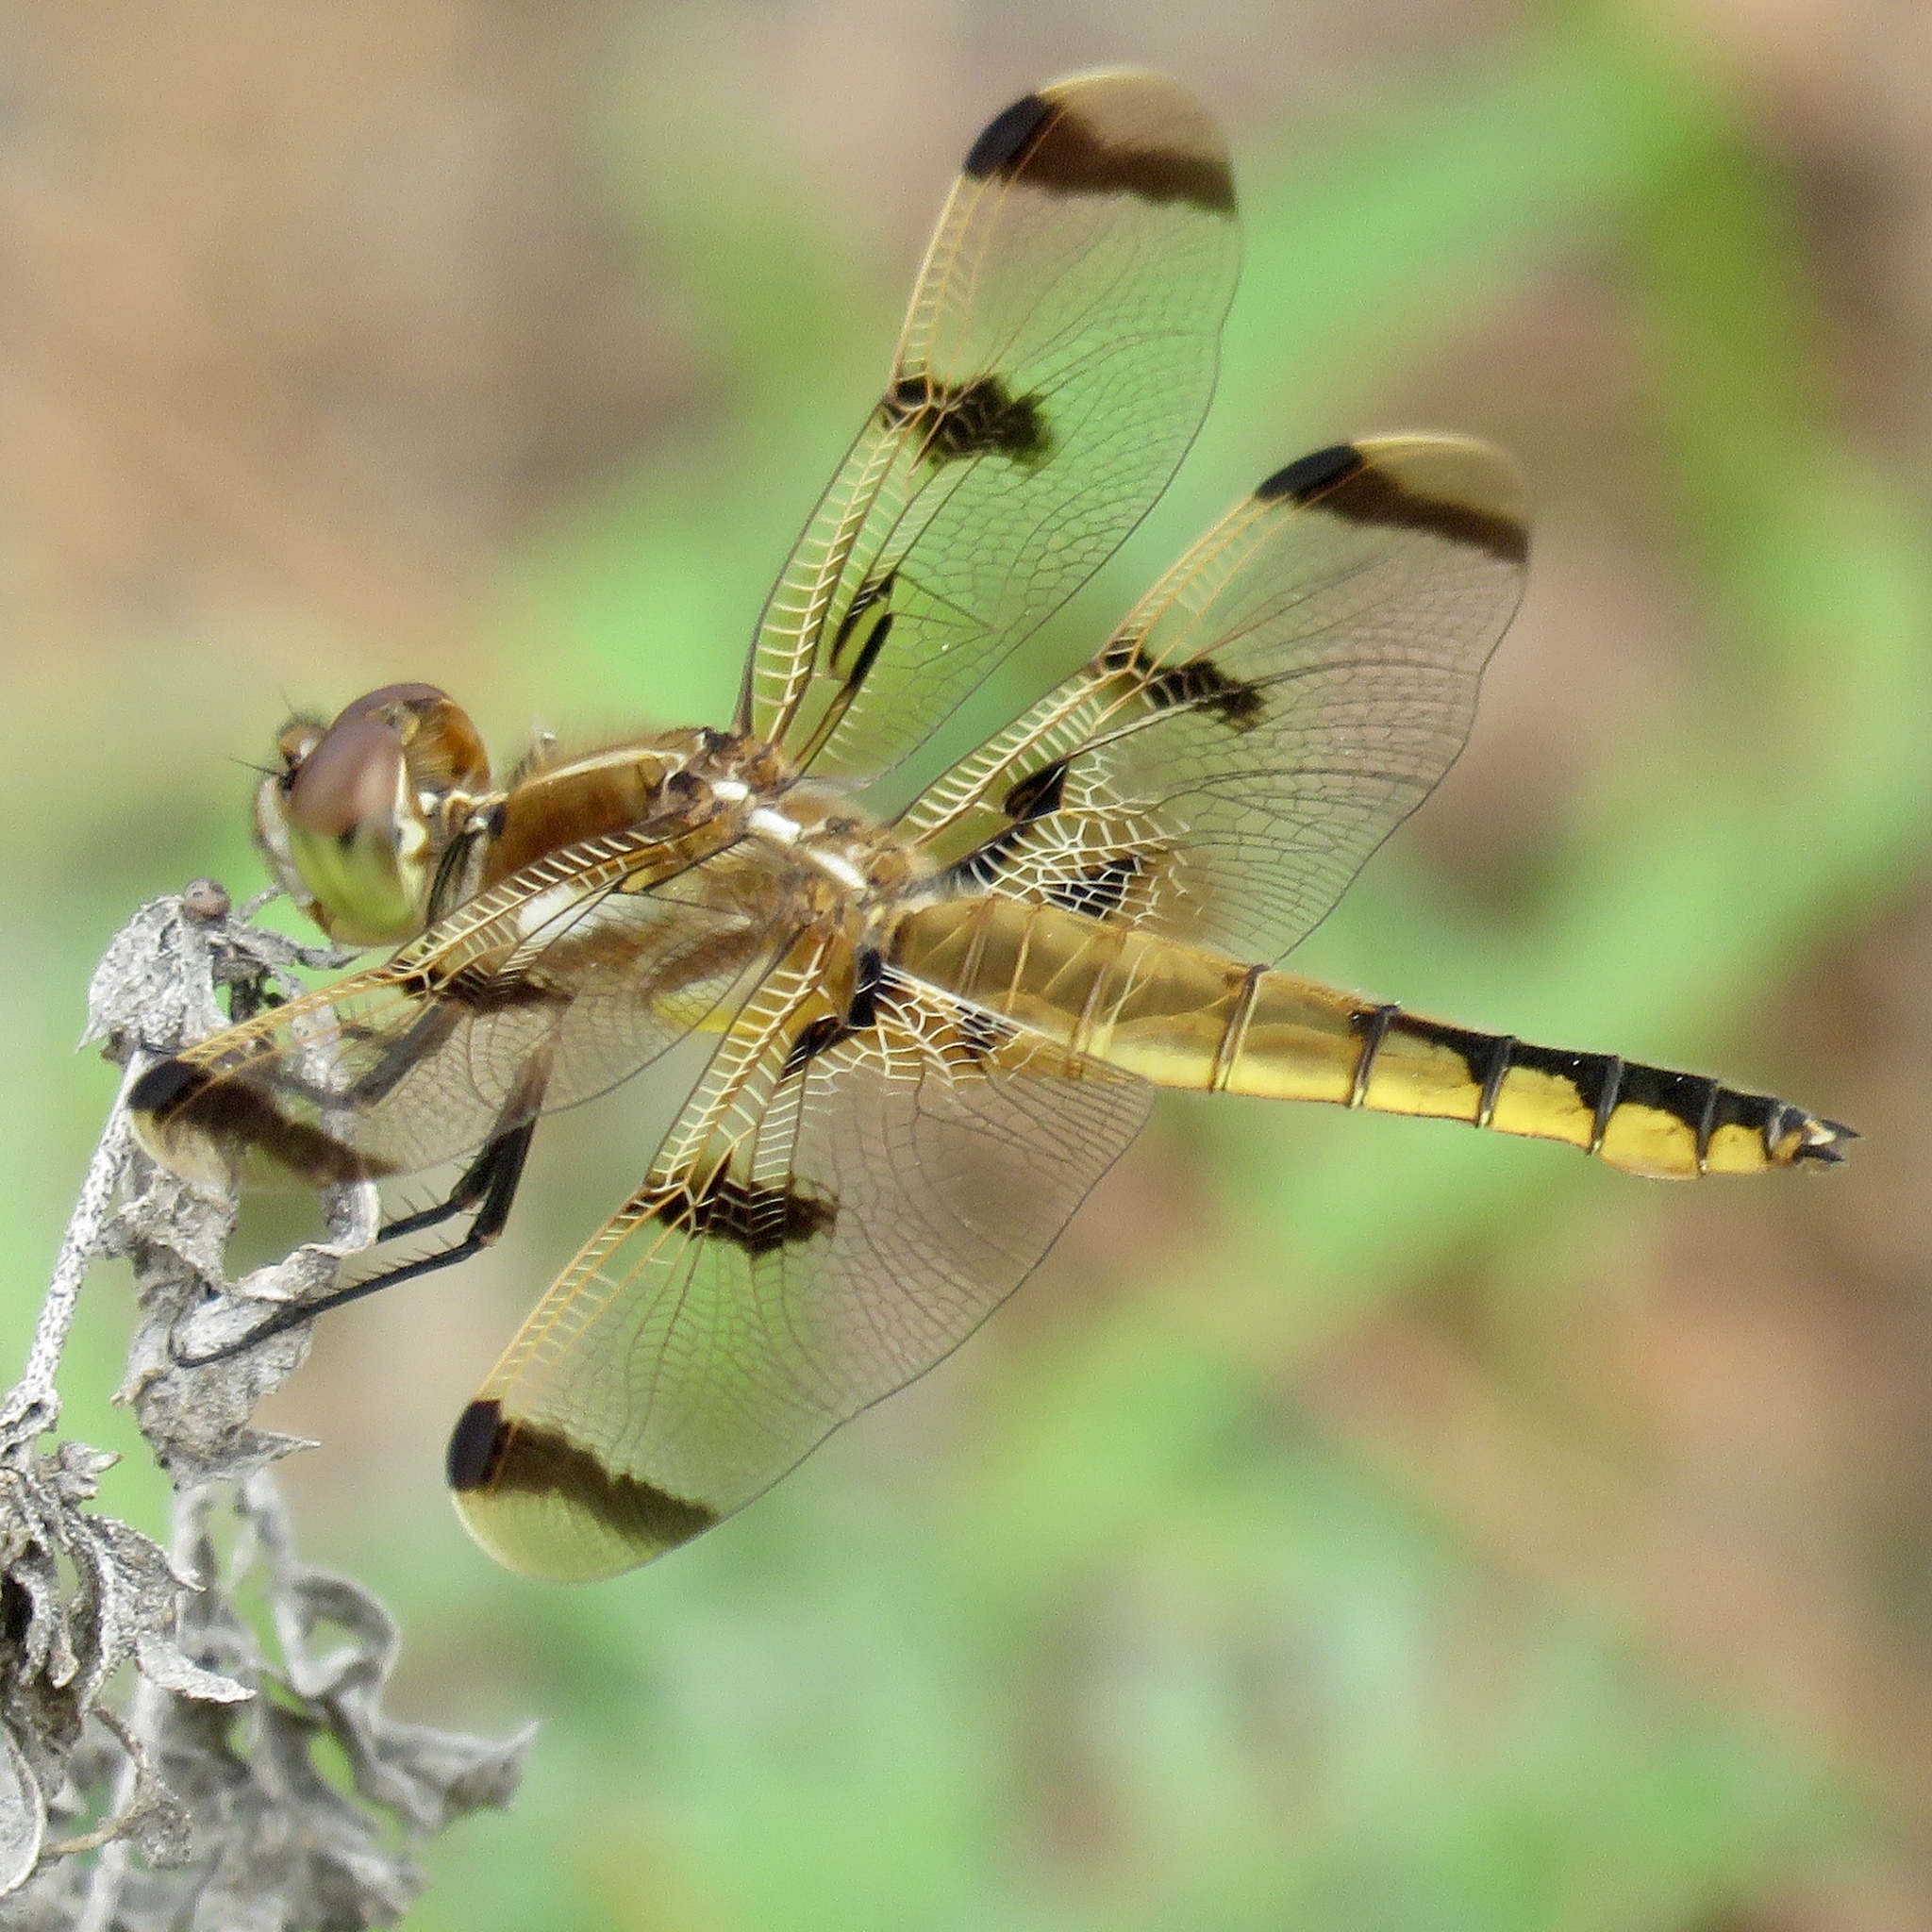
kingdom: Animalia
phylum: Arthropoda
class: Insecta
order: Odonata
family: Libellulidae
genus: Libellula
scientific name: Libellula semifasciata
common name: Painted skimmer
